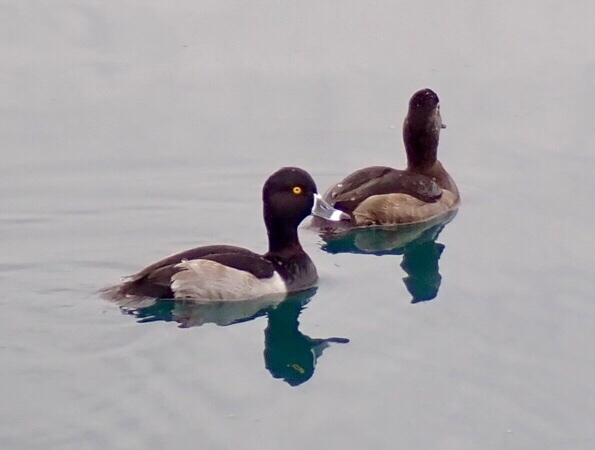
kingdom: Animalia
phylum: Chordata
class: Aves
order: Anseriformes
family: Anatidae
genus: Aythya
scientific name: Aythya collaris
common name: Ring-necked duck
